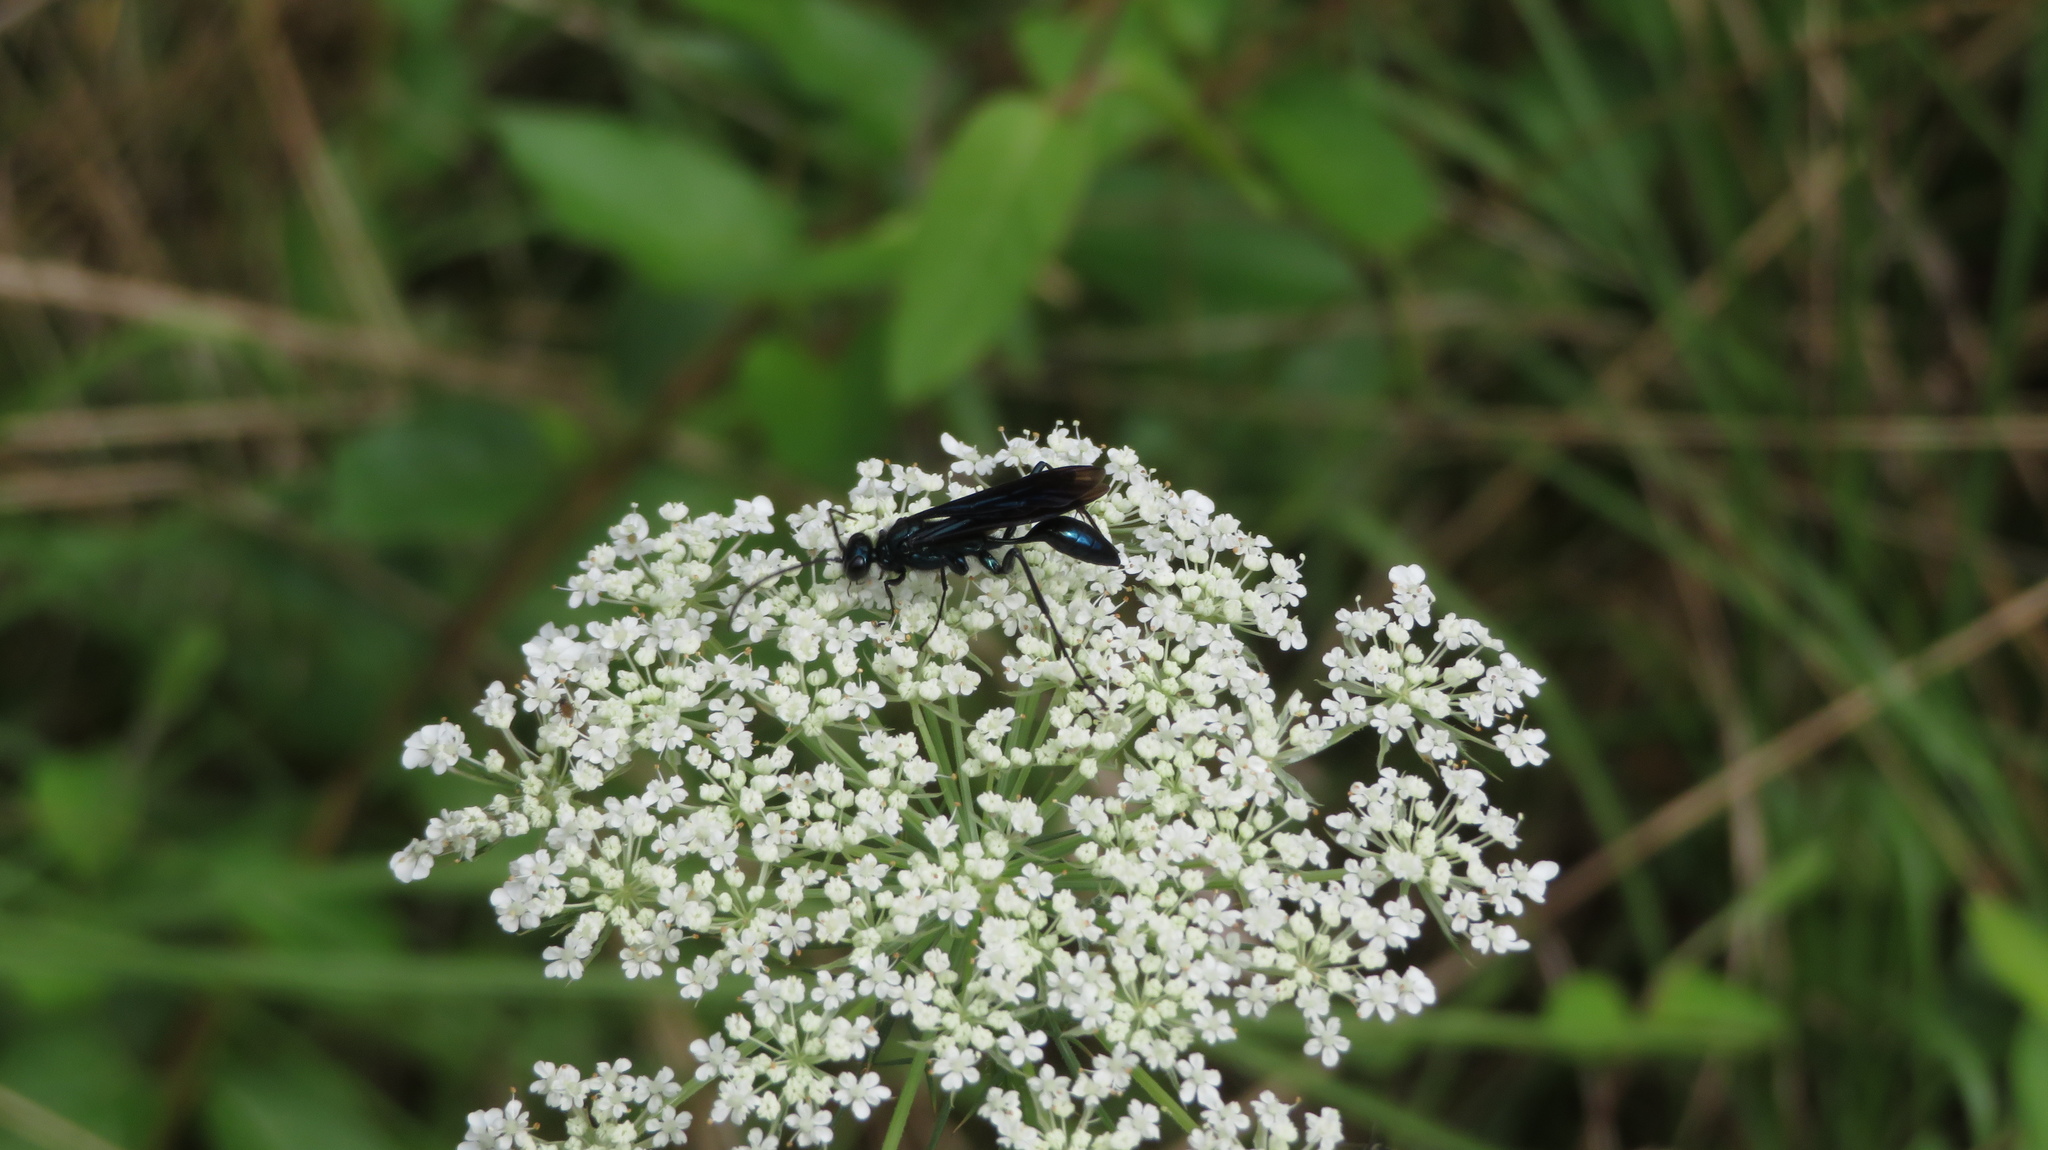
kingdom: Animalia
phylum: Arthropoda
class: Insecta
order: Hymenoptera
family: Sphecidae
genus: Chalybion
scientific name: Chalybion californicum
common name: Mud dauber
